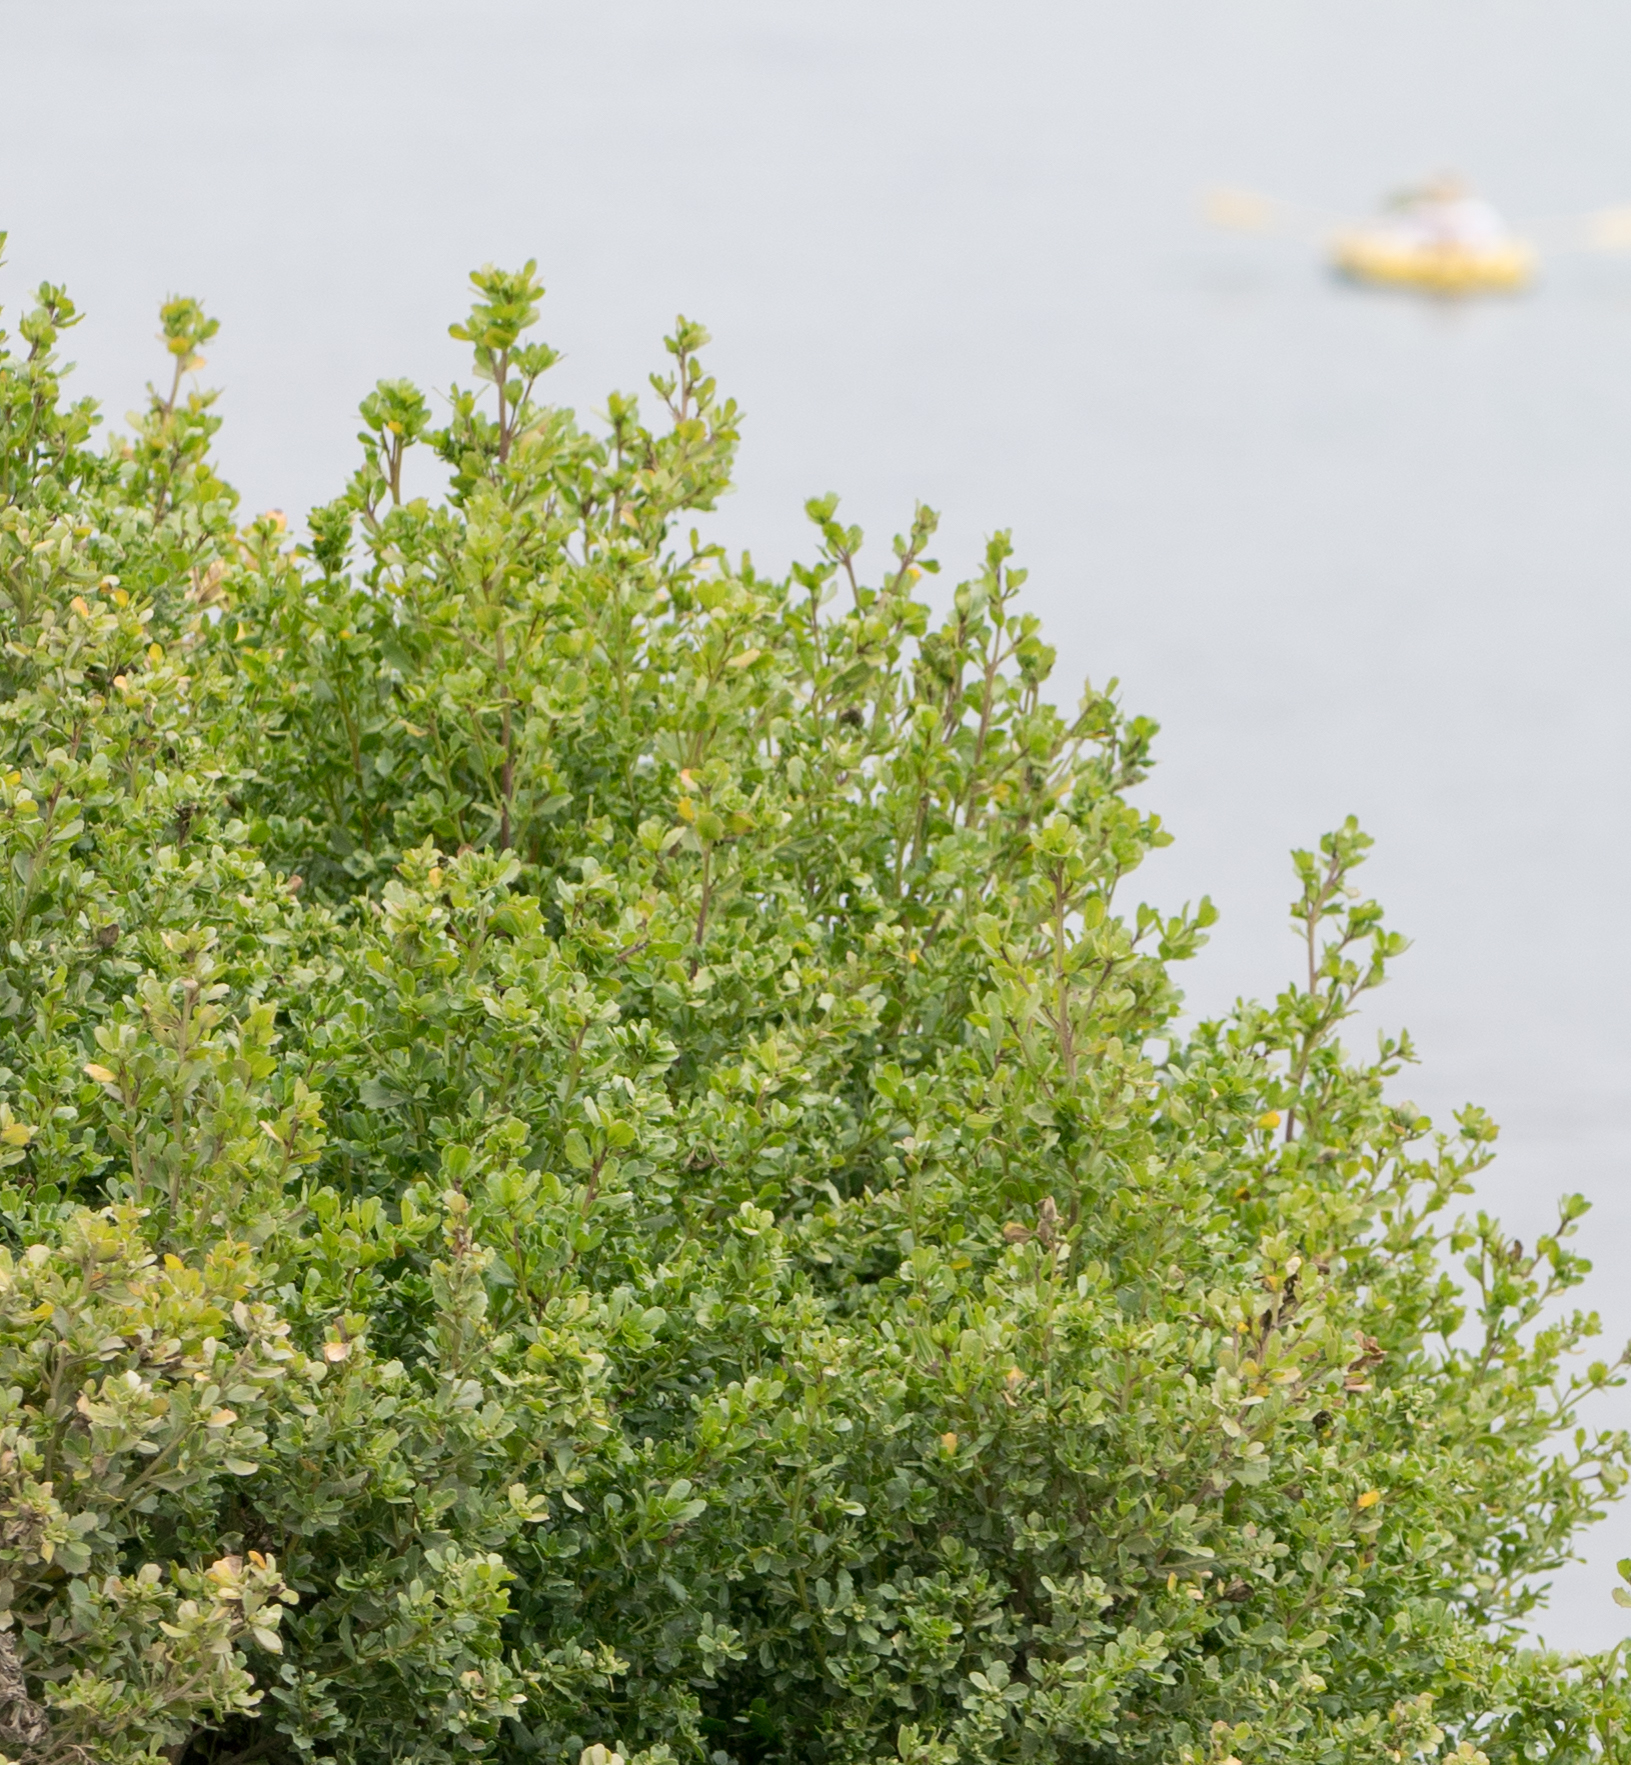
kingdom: Plantae
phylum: Tracheophyta
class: Magnoliopsida
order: Asterales
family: Asteraceae
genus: Baccharis
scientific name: Baccharis pilularis
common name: Coyotebrush
